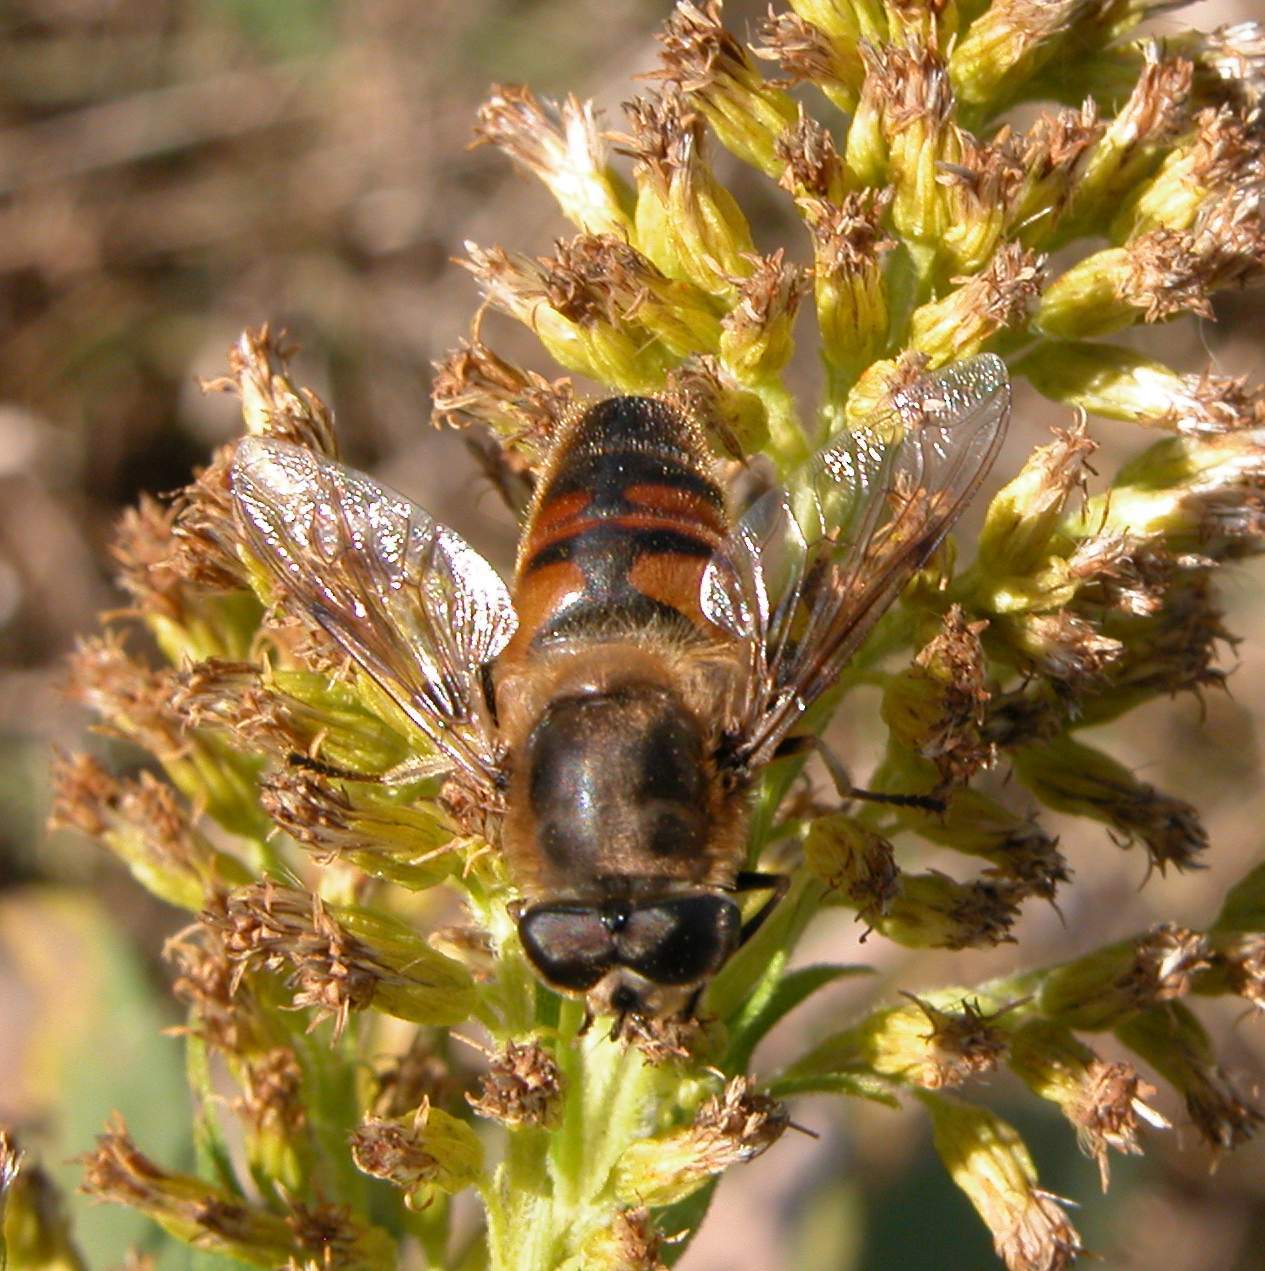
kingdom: Animalia
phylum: Arthropoda
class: Insecta
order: Diptera
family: Syrphidae
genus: Eristalis
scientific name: Eristalis tenax
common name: Drone fly
